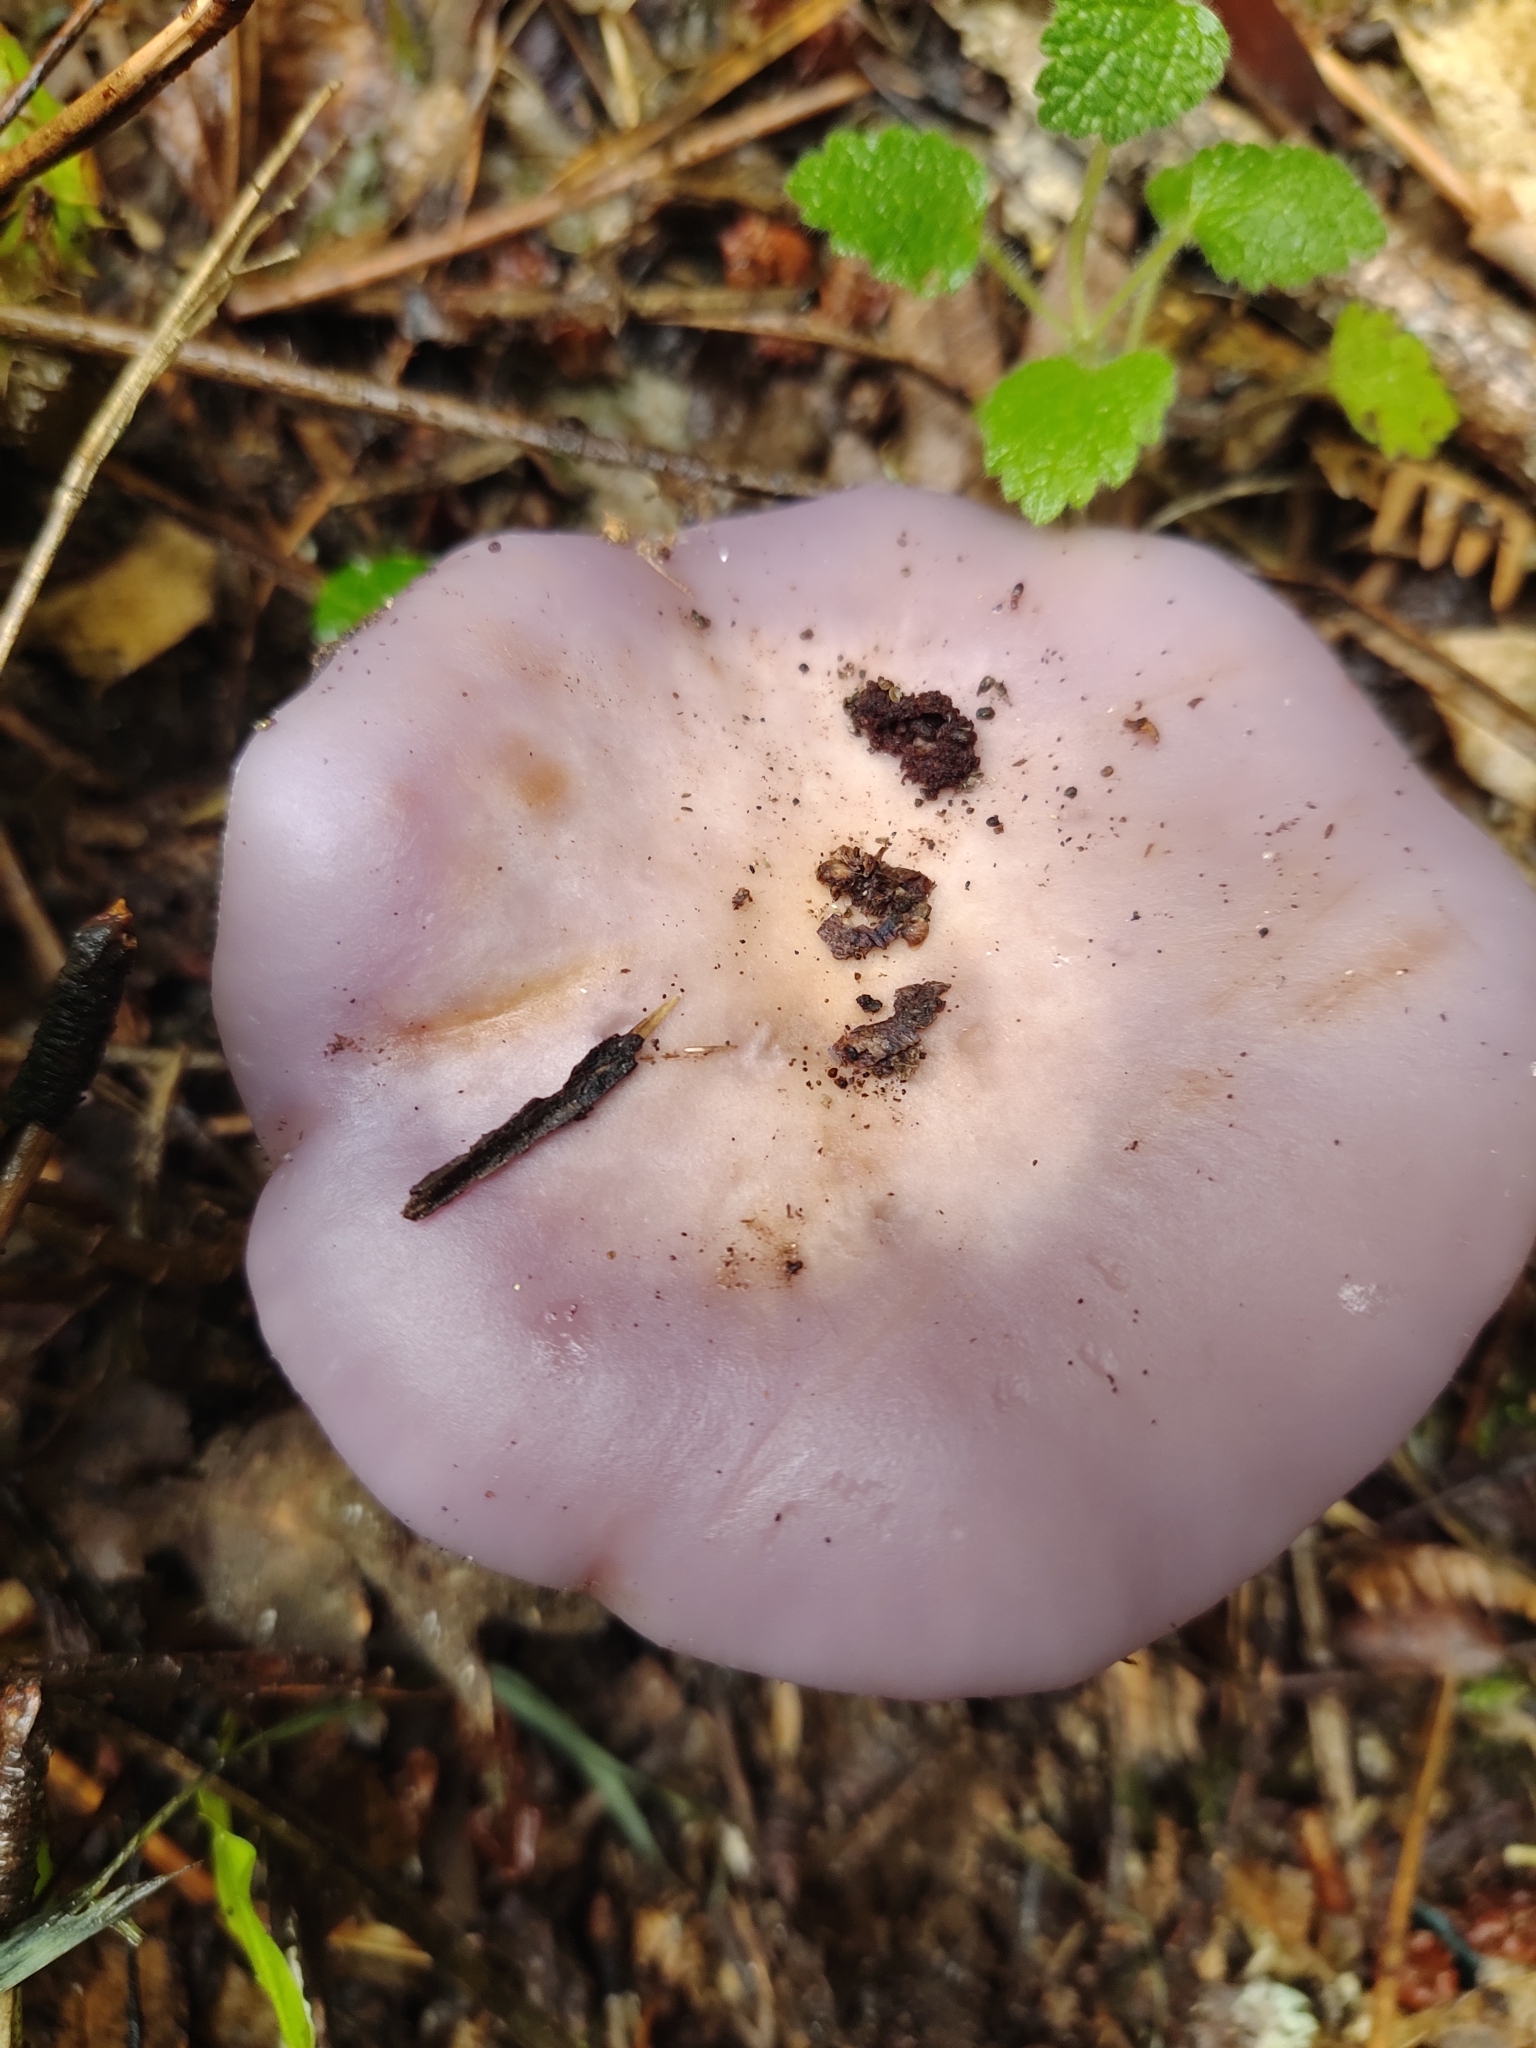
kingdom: Fungi
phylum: Basidiomycota
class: Agaricomycetes
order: Agaricales
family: Tricholomataceae
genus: Collybia
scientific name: Collybia
